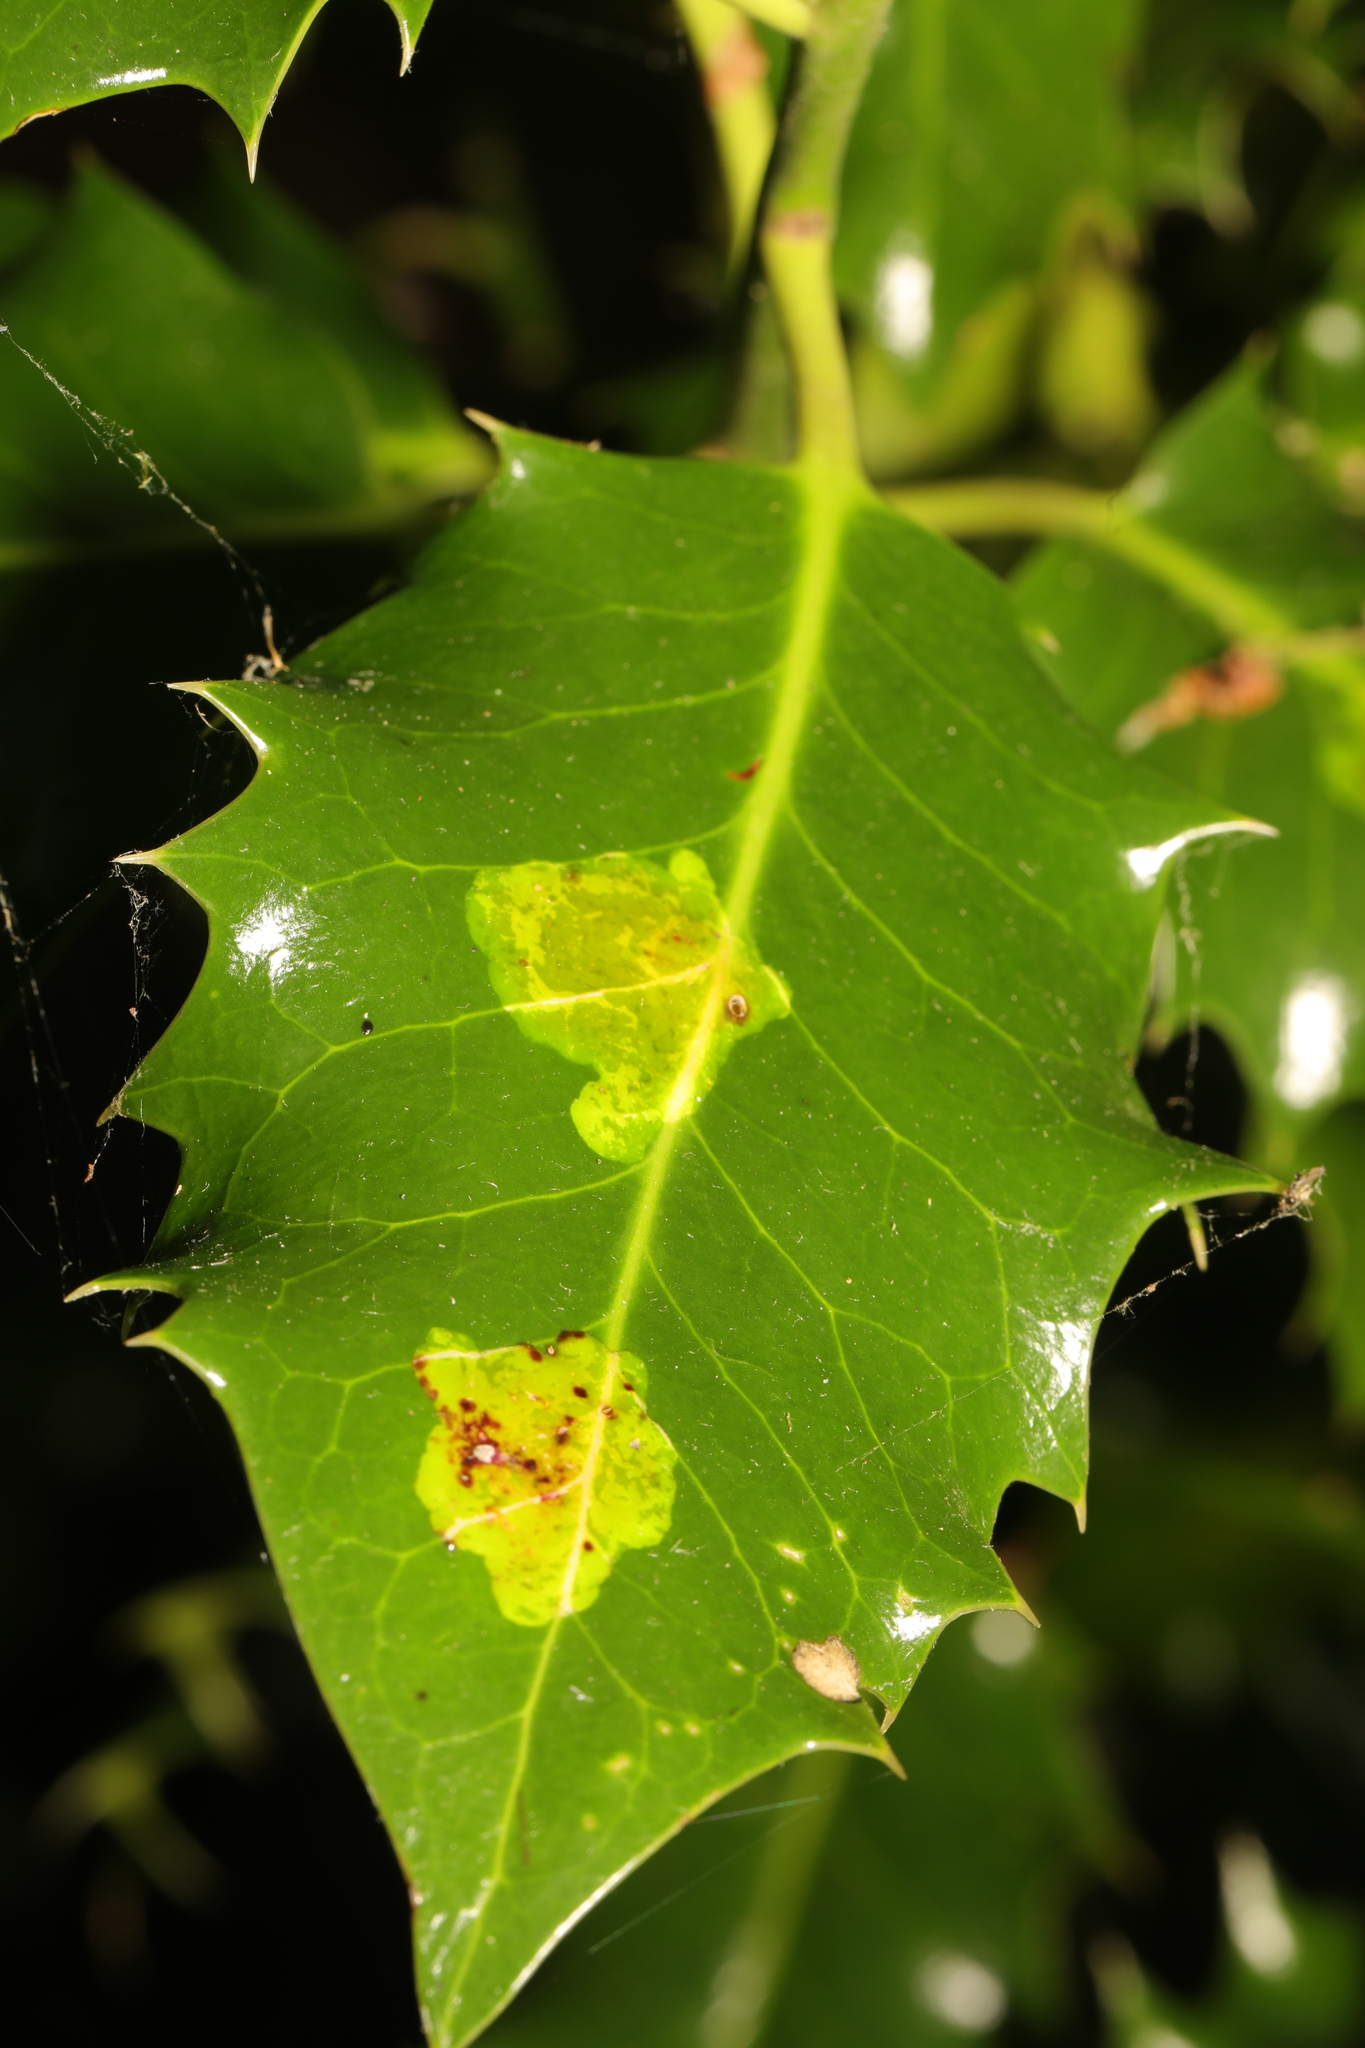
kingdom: Animalia
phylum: Arthropoda
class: Insecta
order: Diptera
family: Agromyzidae
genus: Phytomyza
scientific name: Phytomyza ilicis
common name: Holly leafminer
